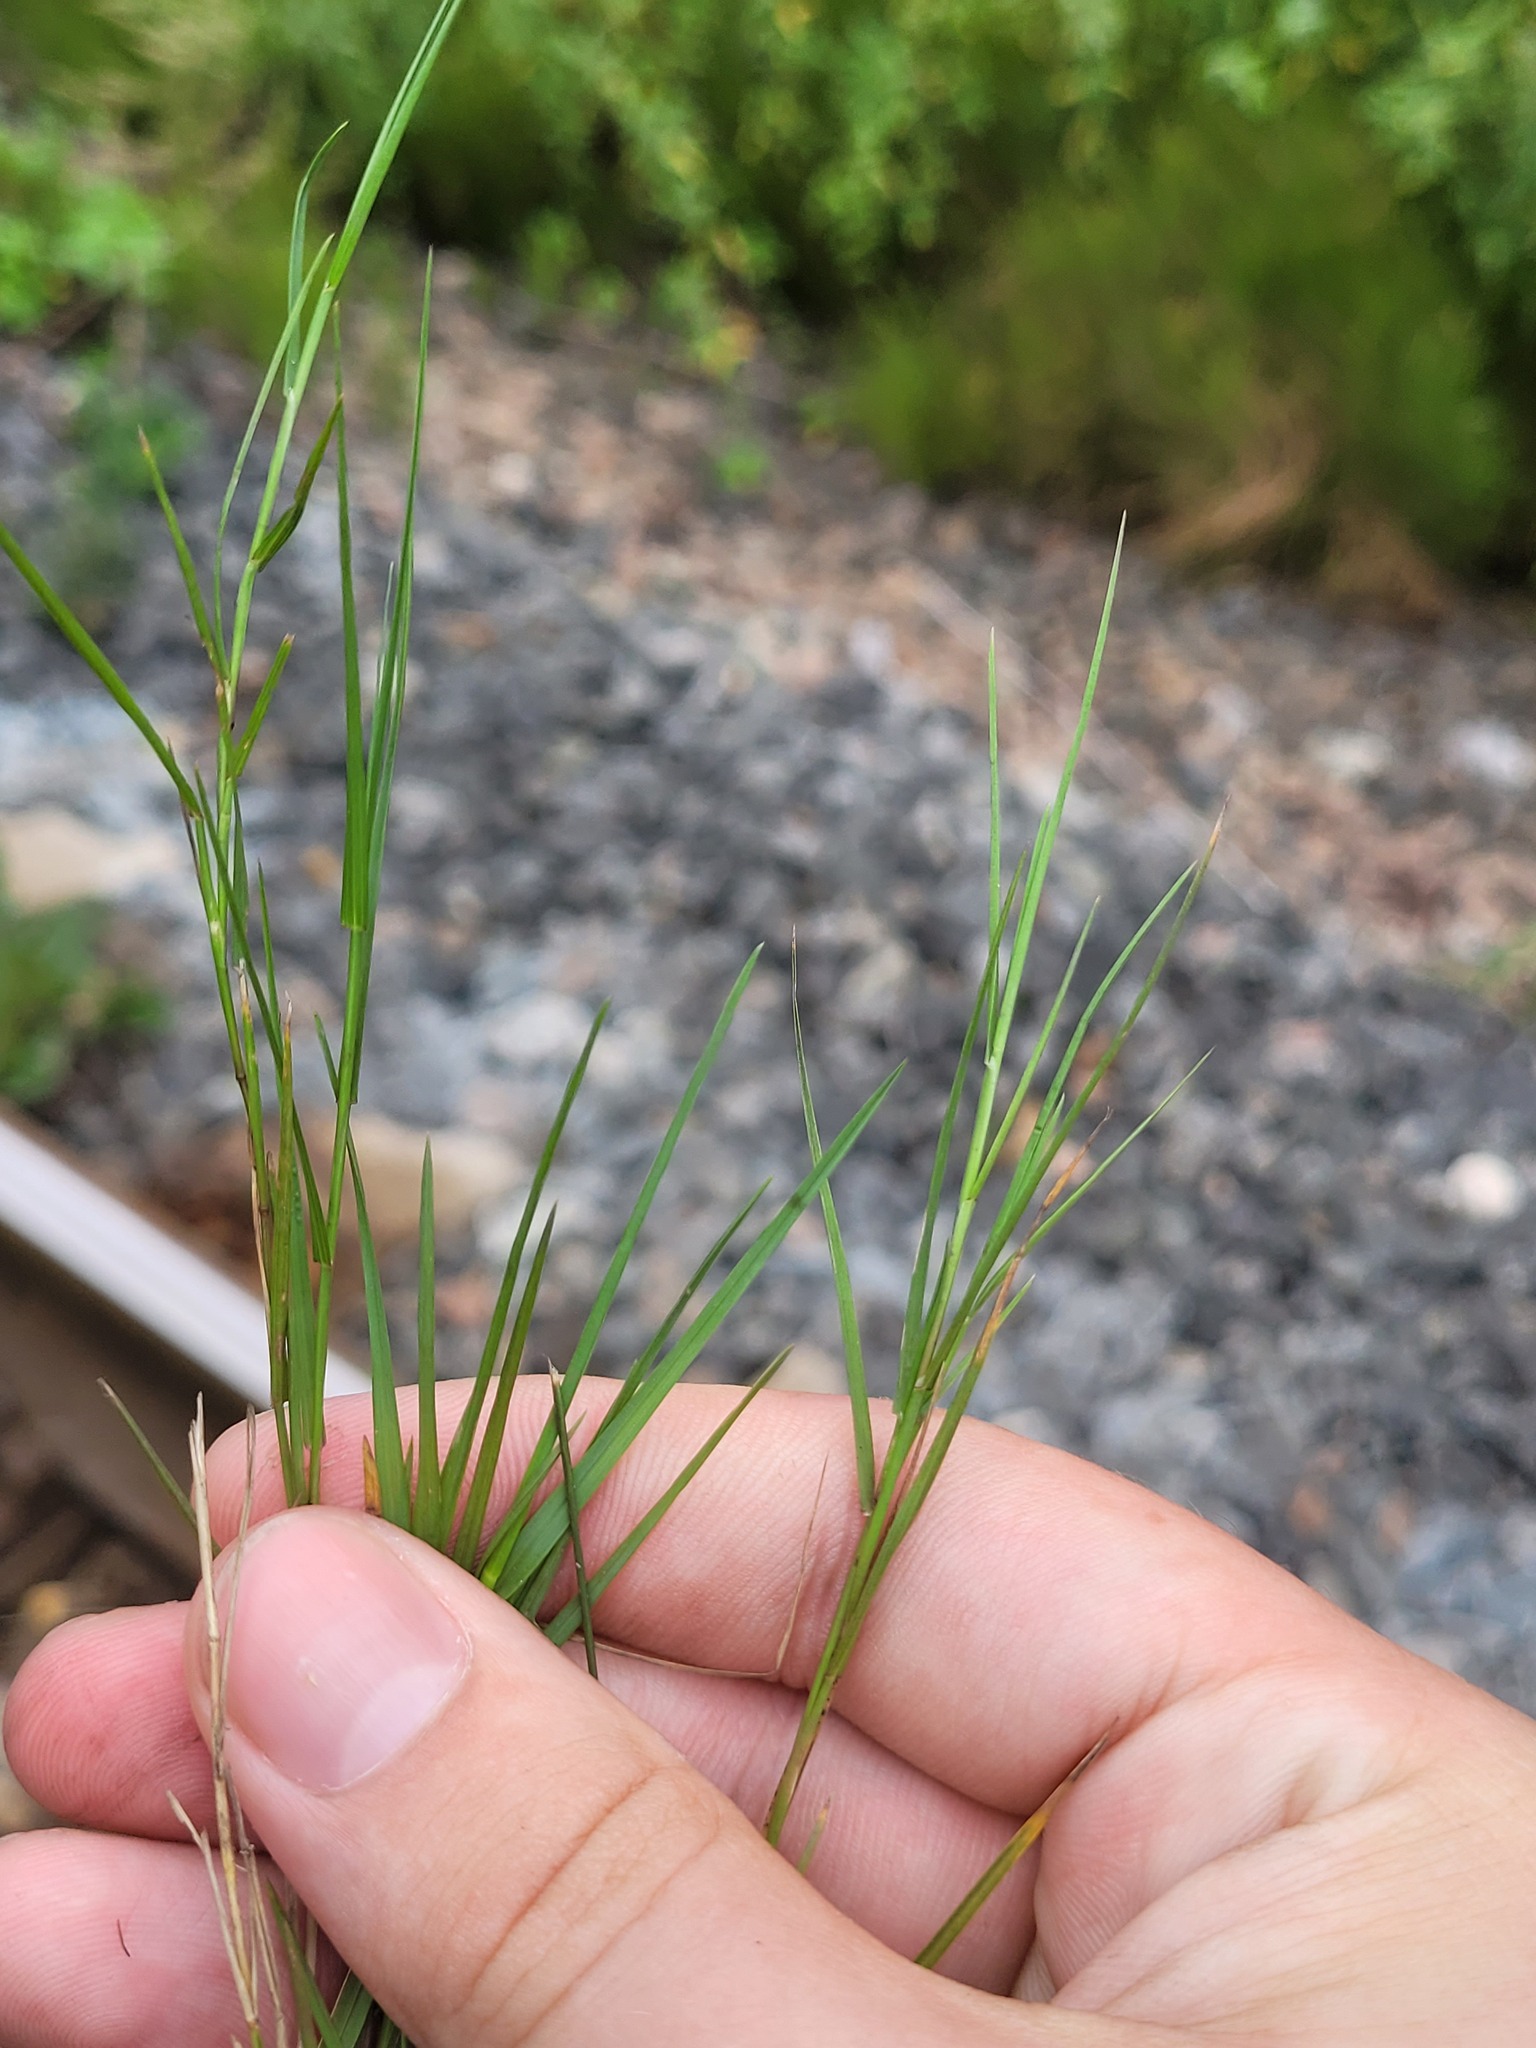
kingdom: Plantae
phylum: Tracheophyta
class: Liliopsida
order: Poales
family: Poaceae
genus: Poa
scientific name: Poa compressa
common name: Canada bluegrass
